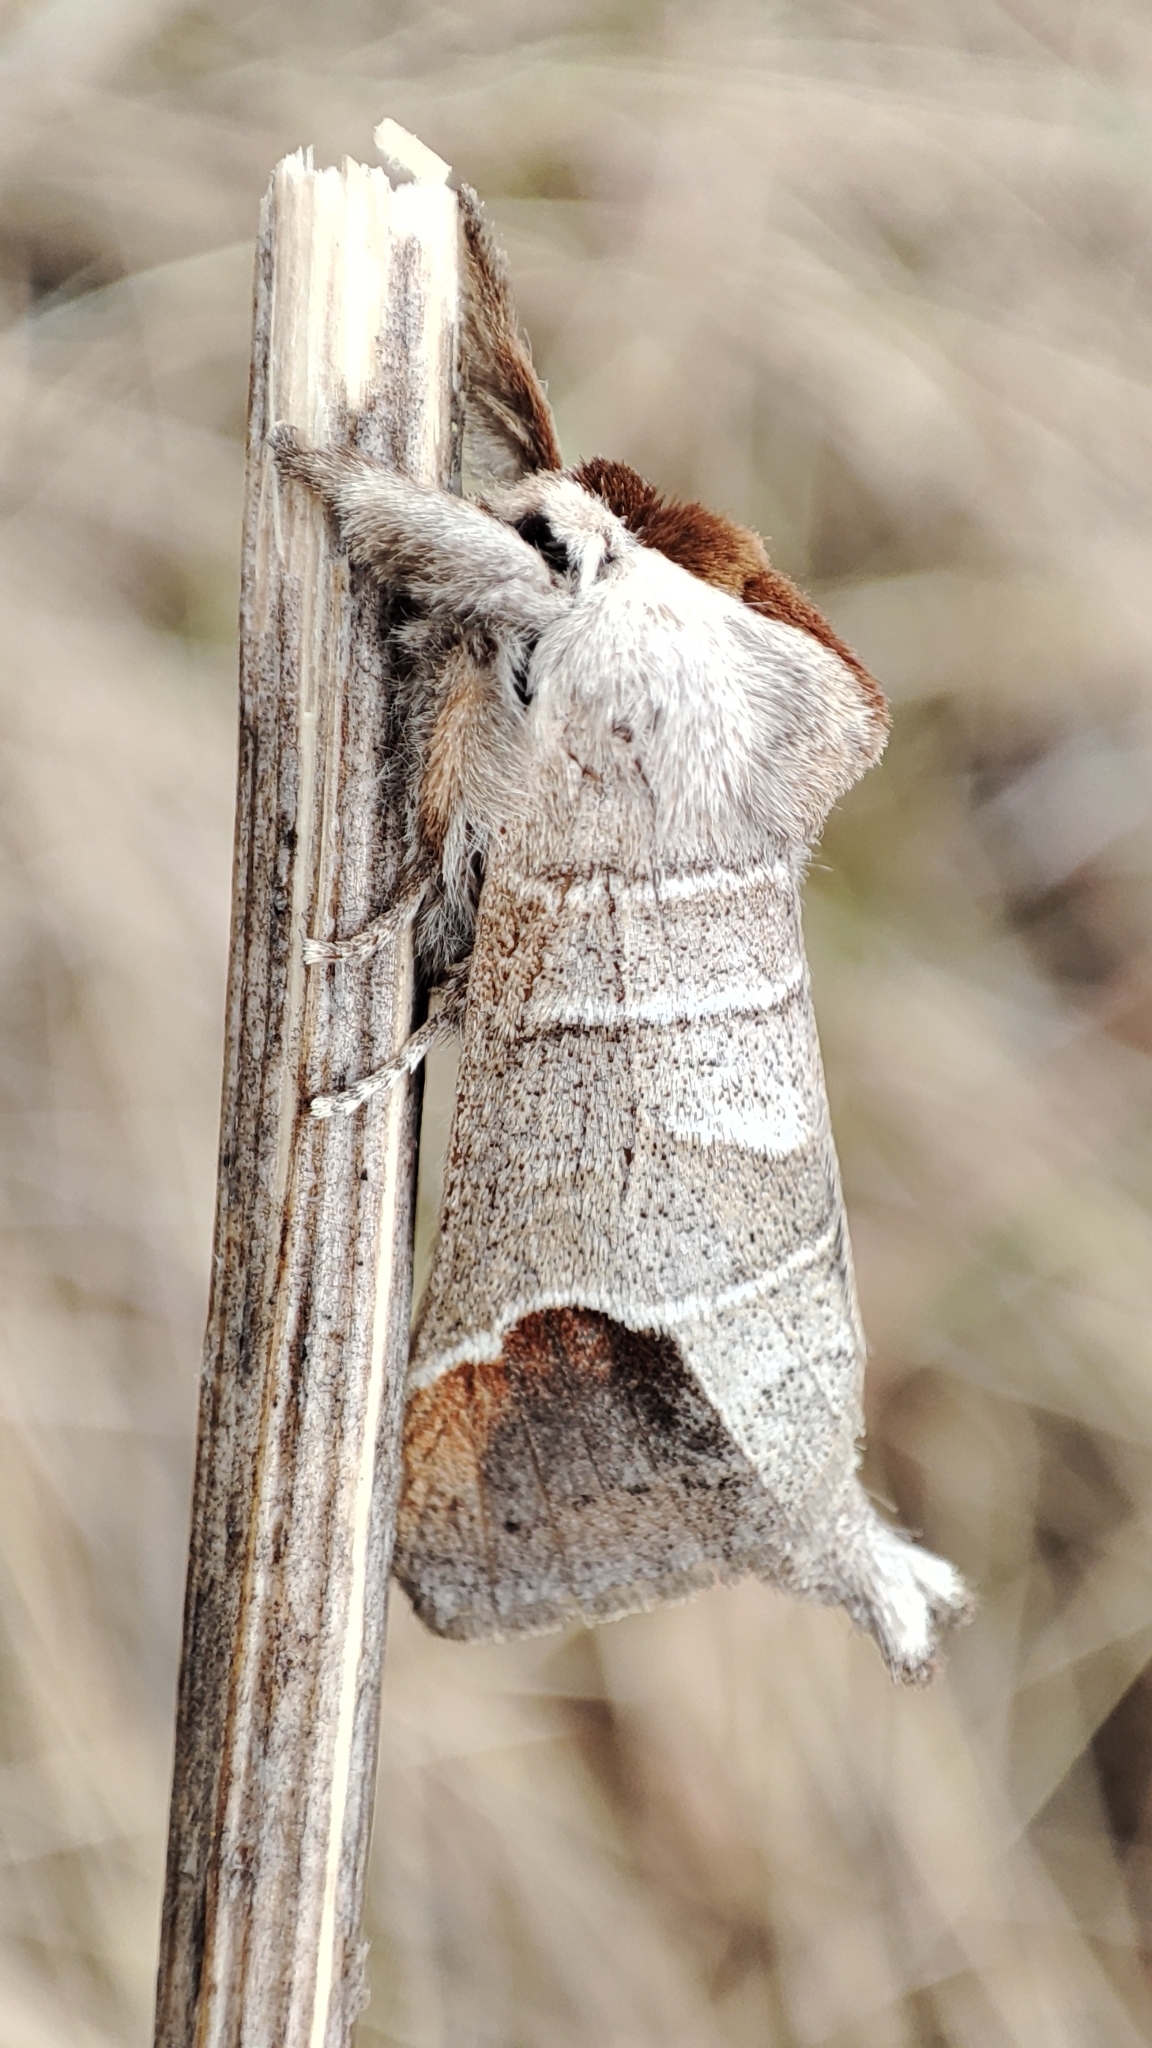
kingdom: Animalia
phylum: Arthropoda
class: Insecta
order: Lepidoptera
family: Notodontidae
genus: Clostera
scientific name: Clostera curtula
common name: Chocolate-tip
